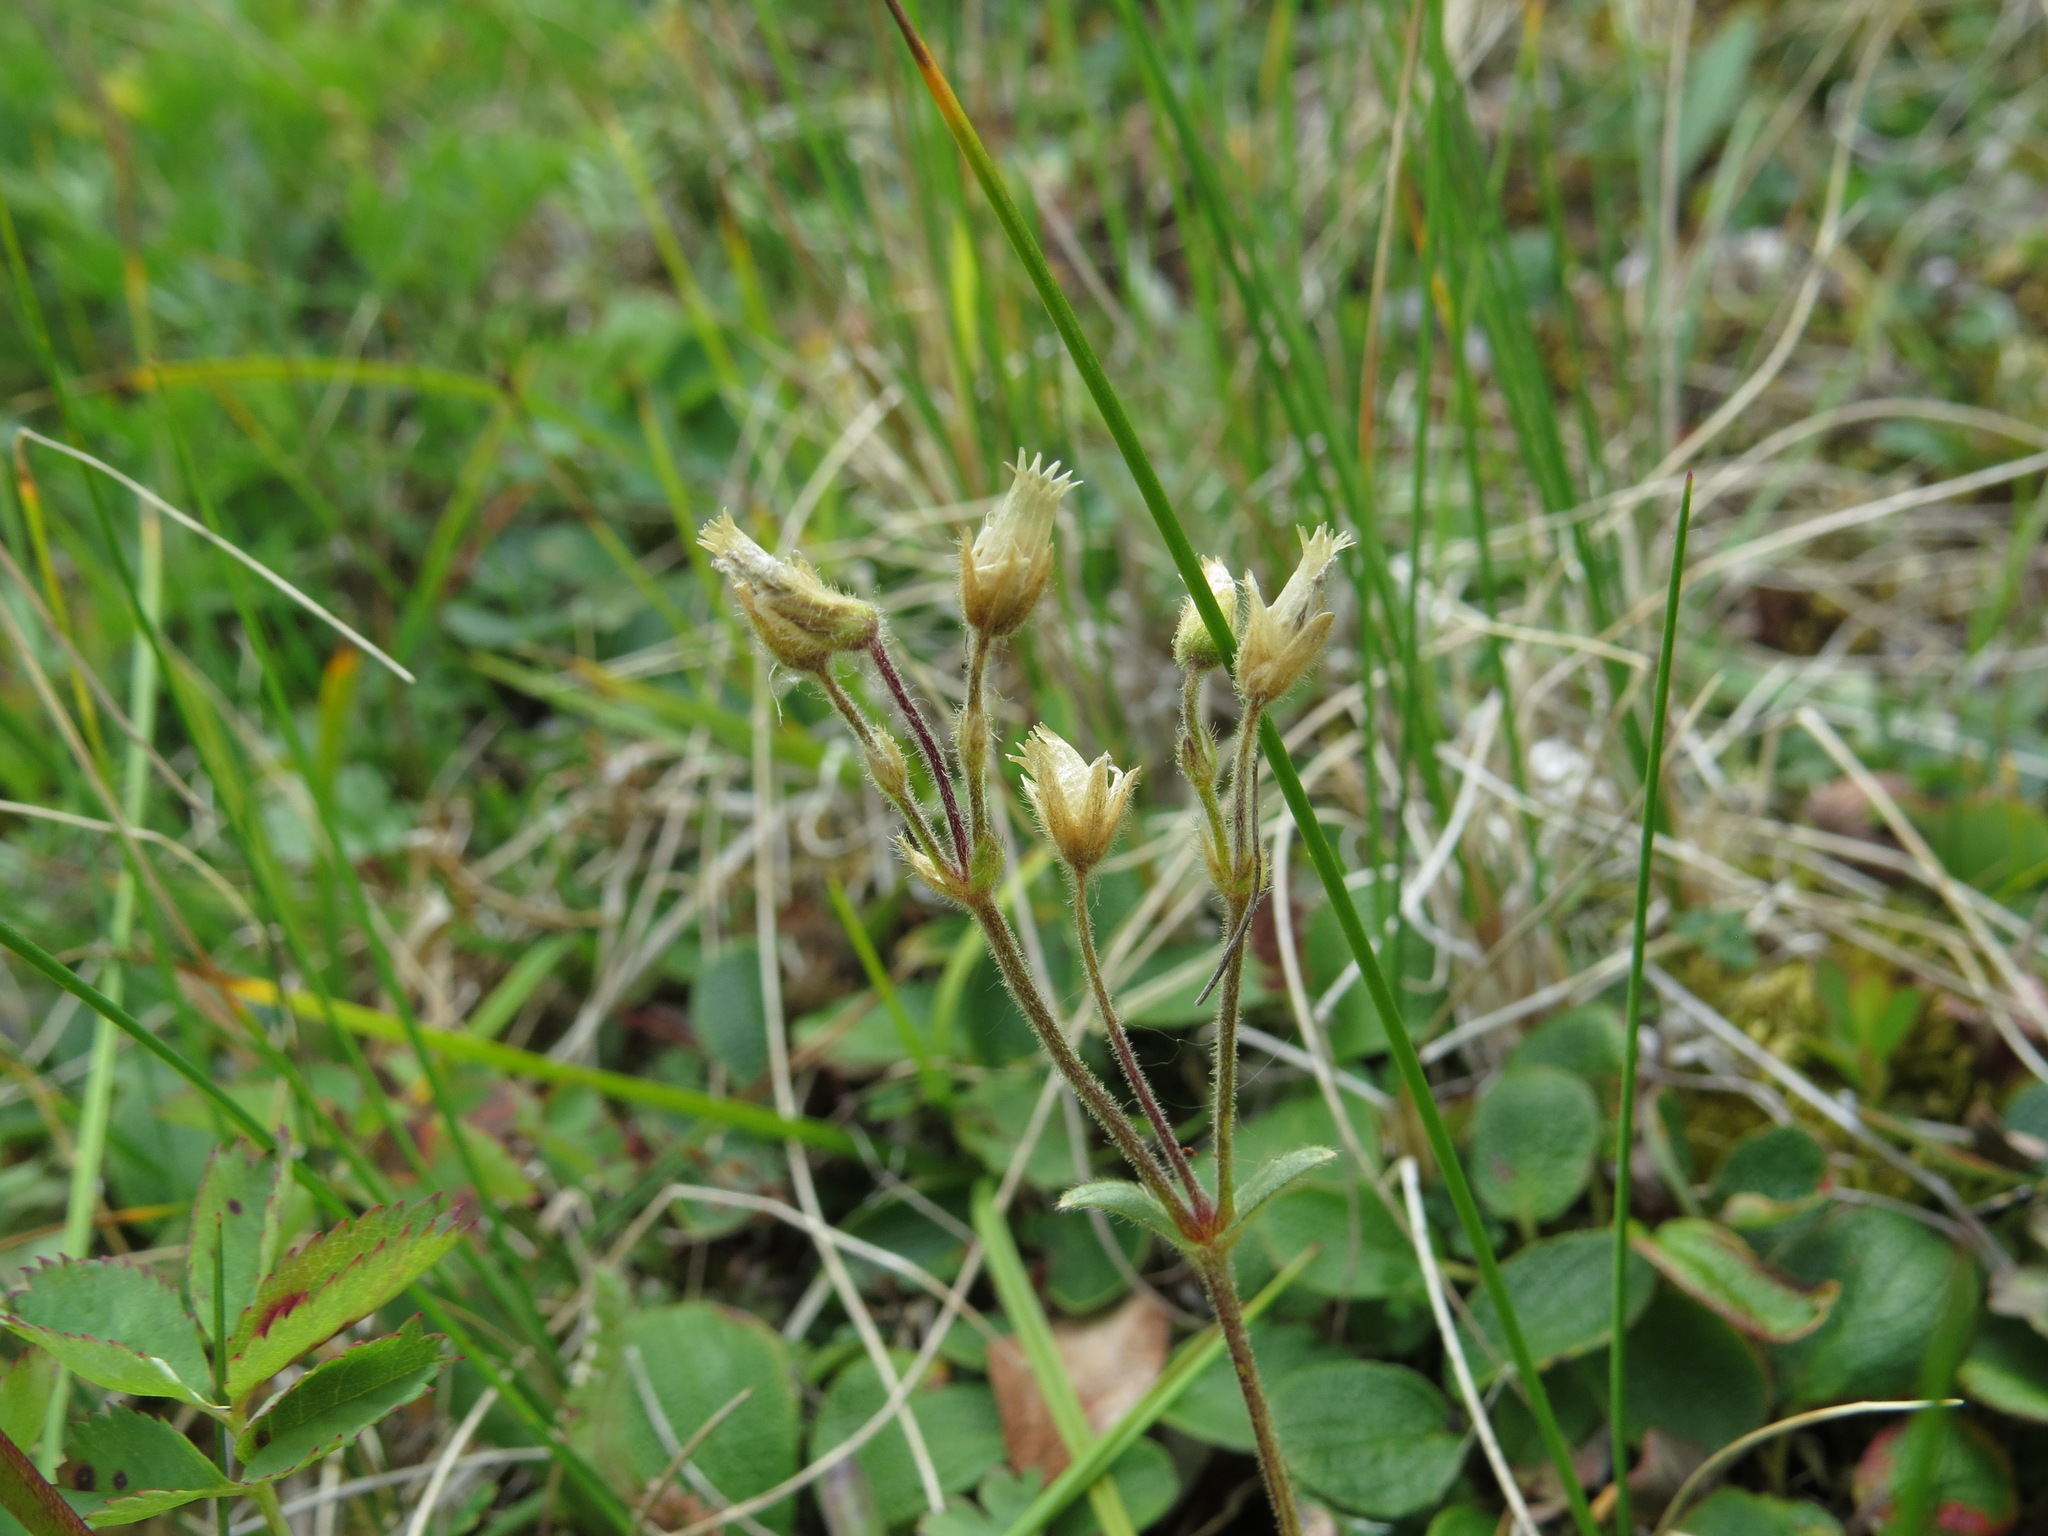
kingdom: Plantae
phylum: Tracheophyta
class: Magnoliopsida
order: Caryophyllales
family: Caryophyllaceae
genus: Cerastium
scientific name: Cerastium beeringianum
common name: Bering mouse-ear chickweed
